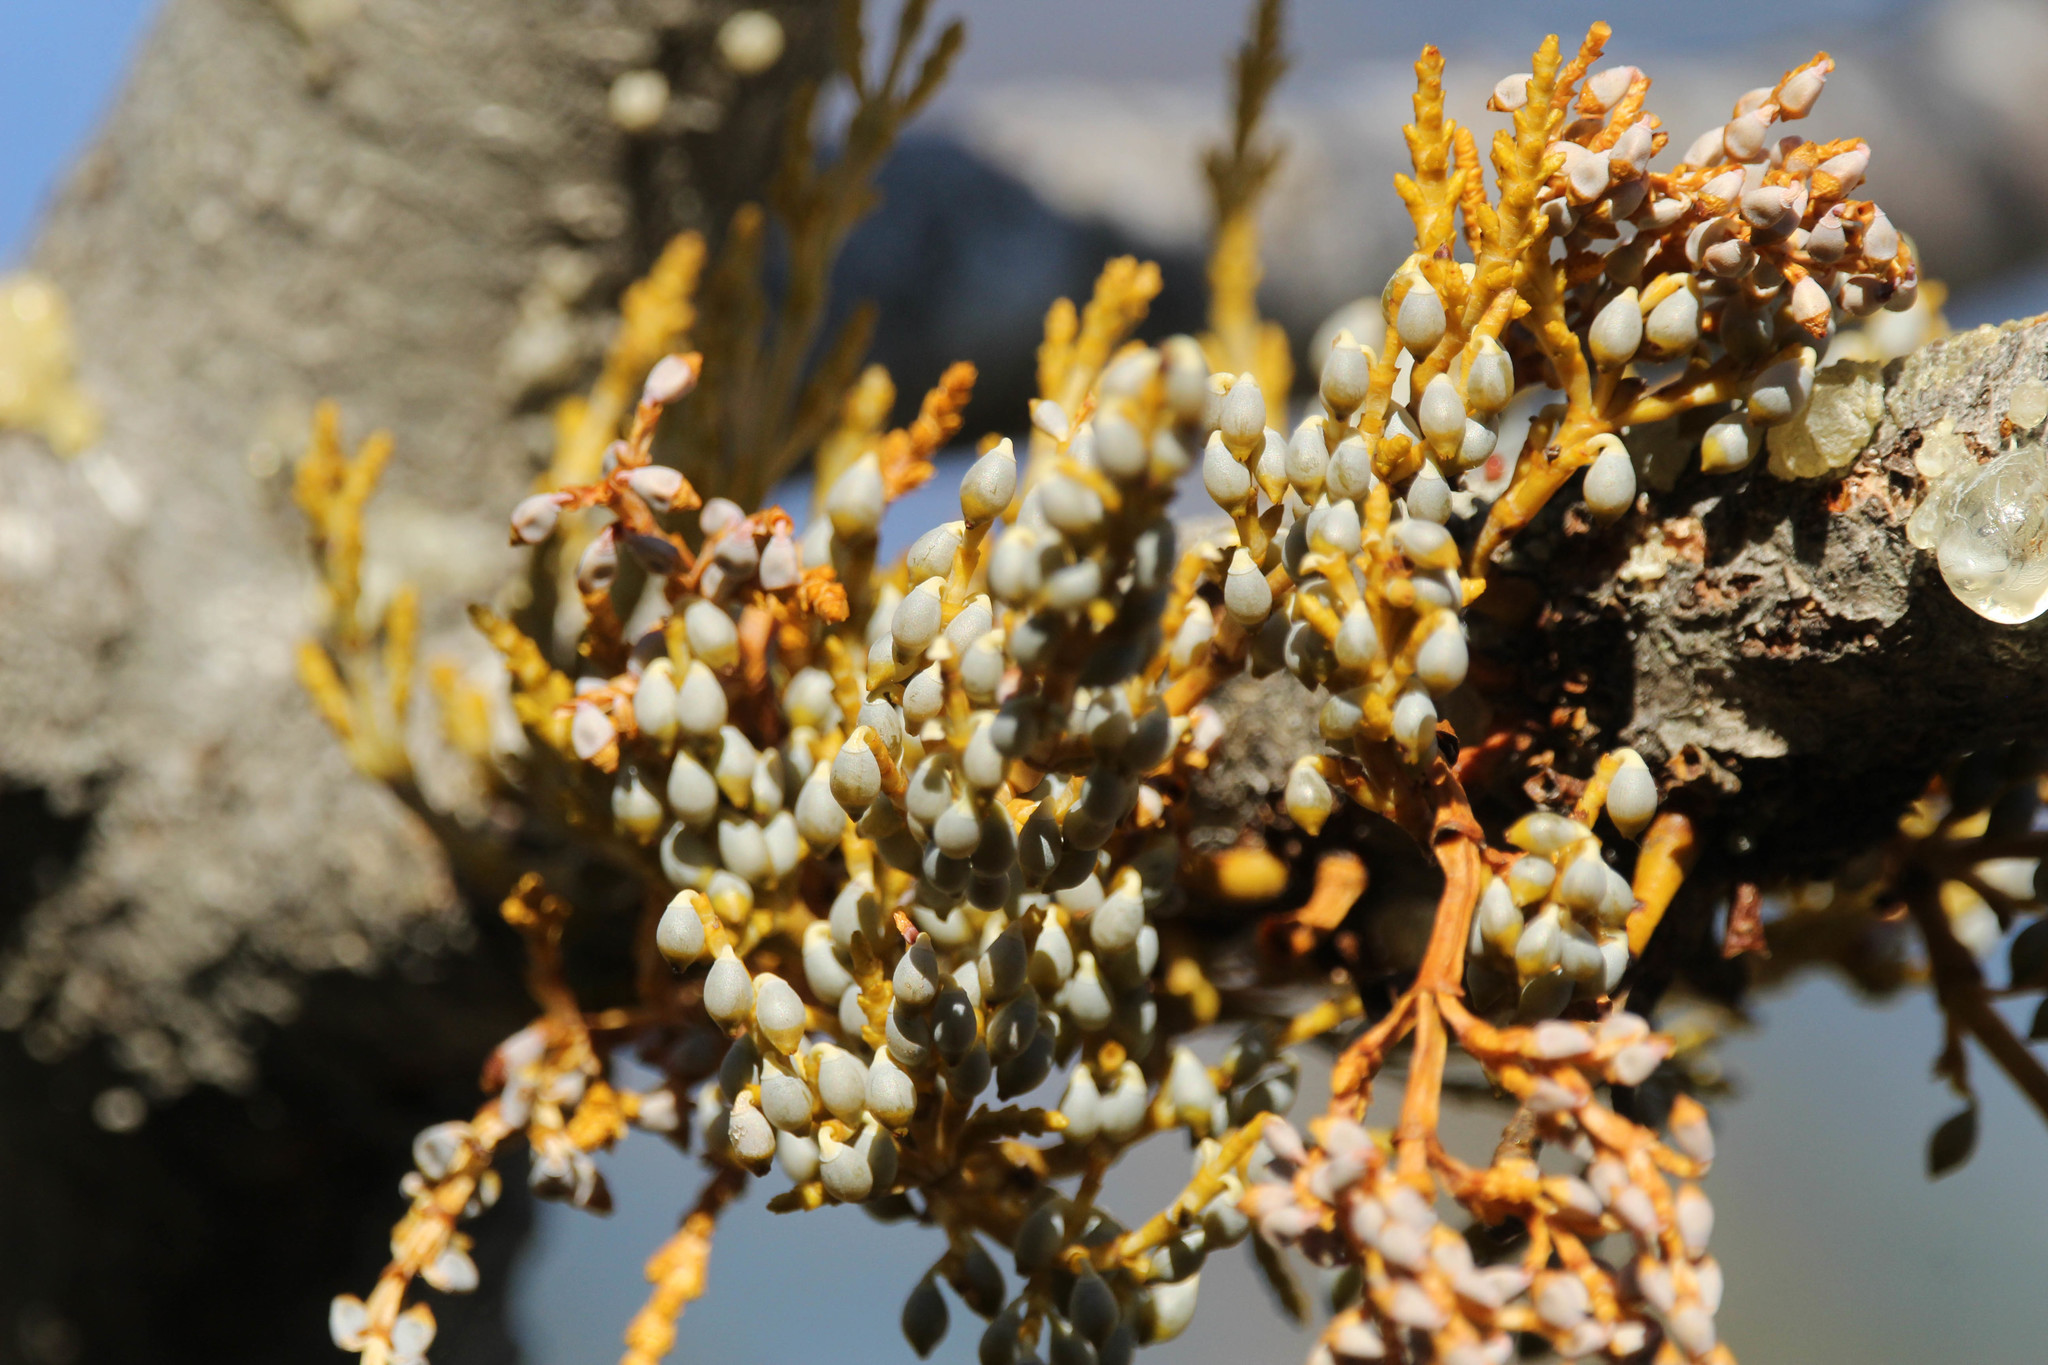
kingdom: Plantae
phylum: Tracheophyta
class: Magnoliopsida
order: Santalales
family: Viscaceae
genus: Arceuthobium
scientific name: Arceuthobium campylopodum
